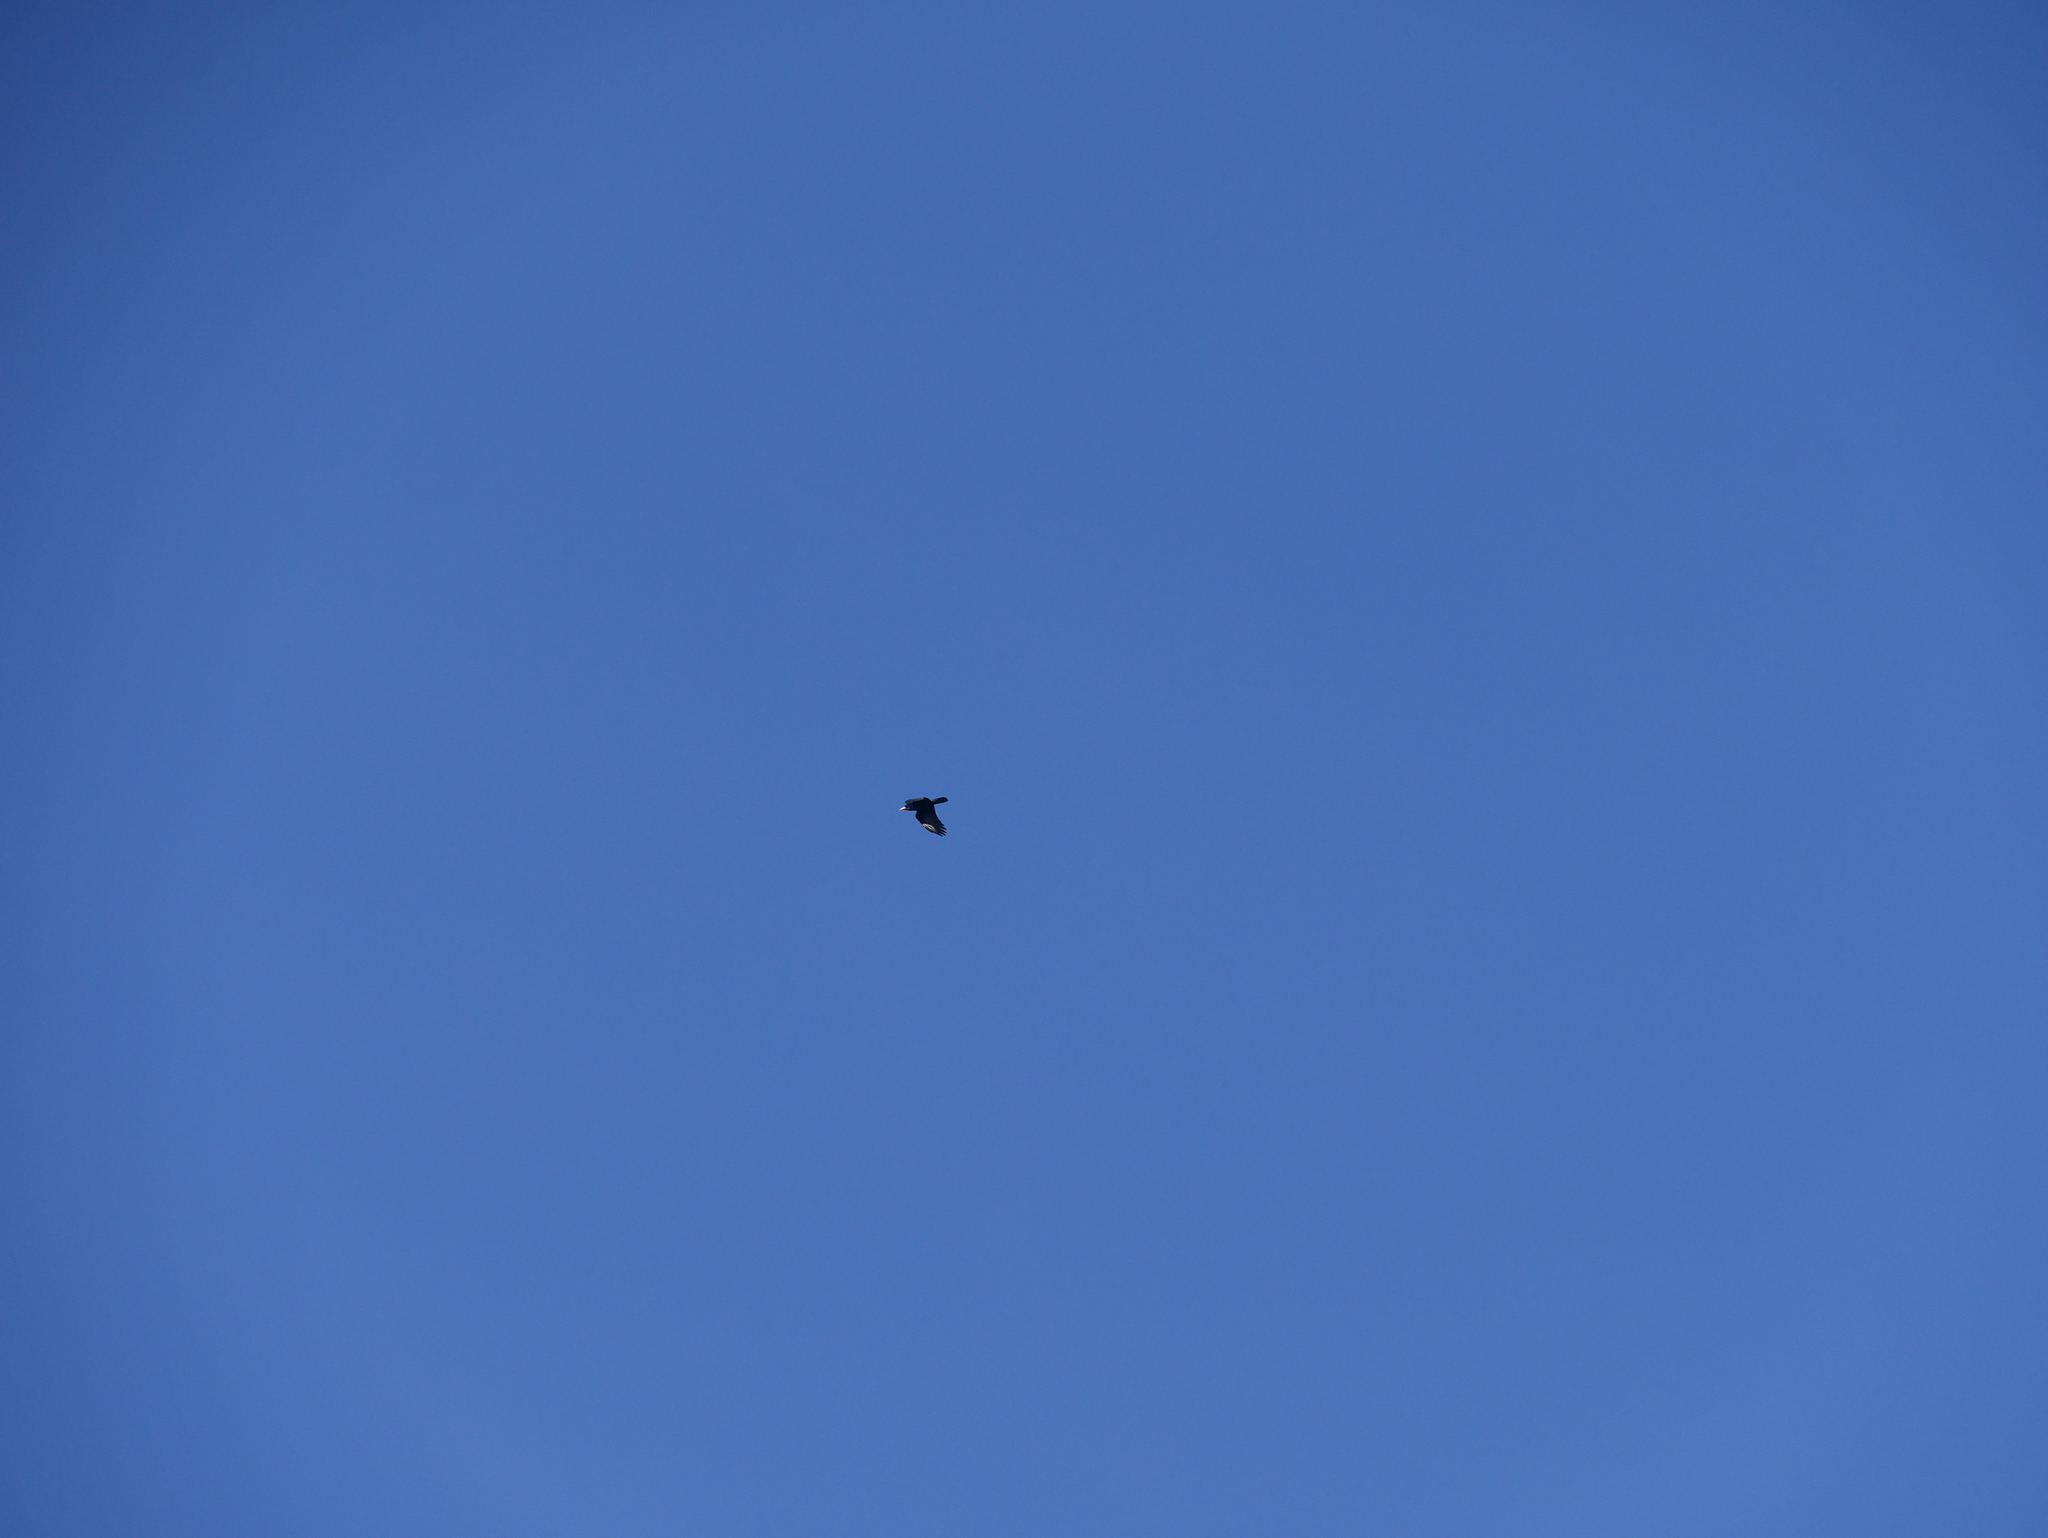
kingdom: Animalia
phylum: Chordata
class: Aves
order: Passeriformes
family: Corvidae
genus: Corvus
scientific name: Corvus frugilegus
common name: Rook
